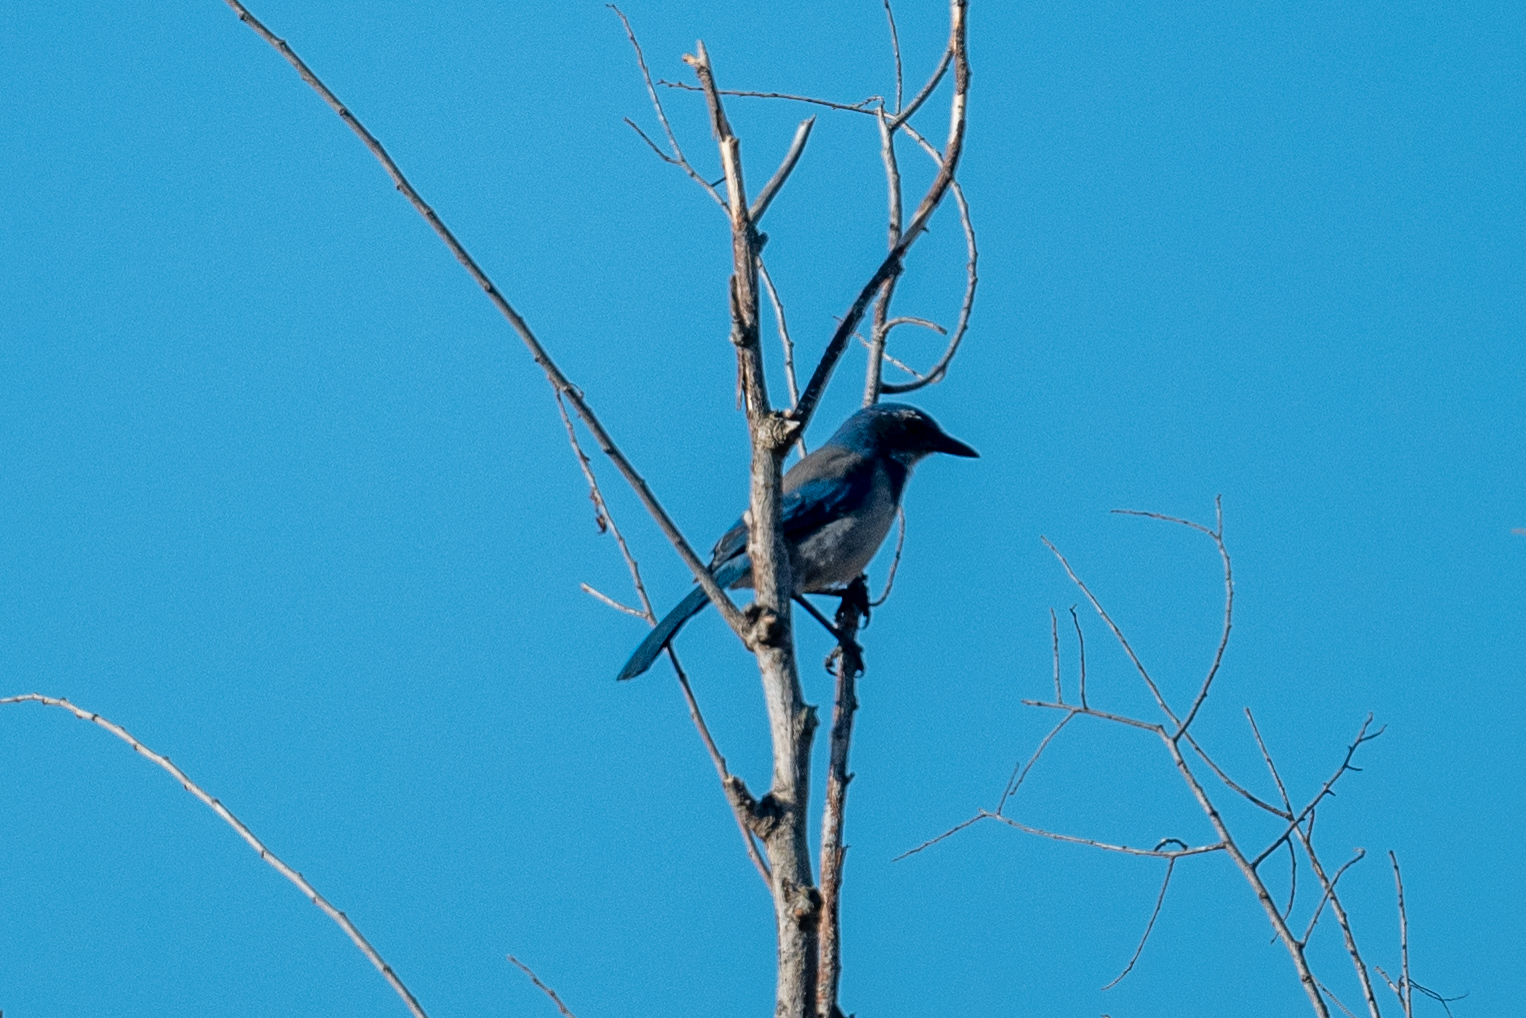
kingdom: Animalia
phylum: Chordata
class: Aves
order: Passeriformes
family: Corvidae
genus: Aphelocoma
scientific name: Aphelocoma californica
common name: California scrub-jay
